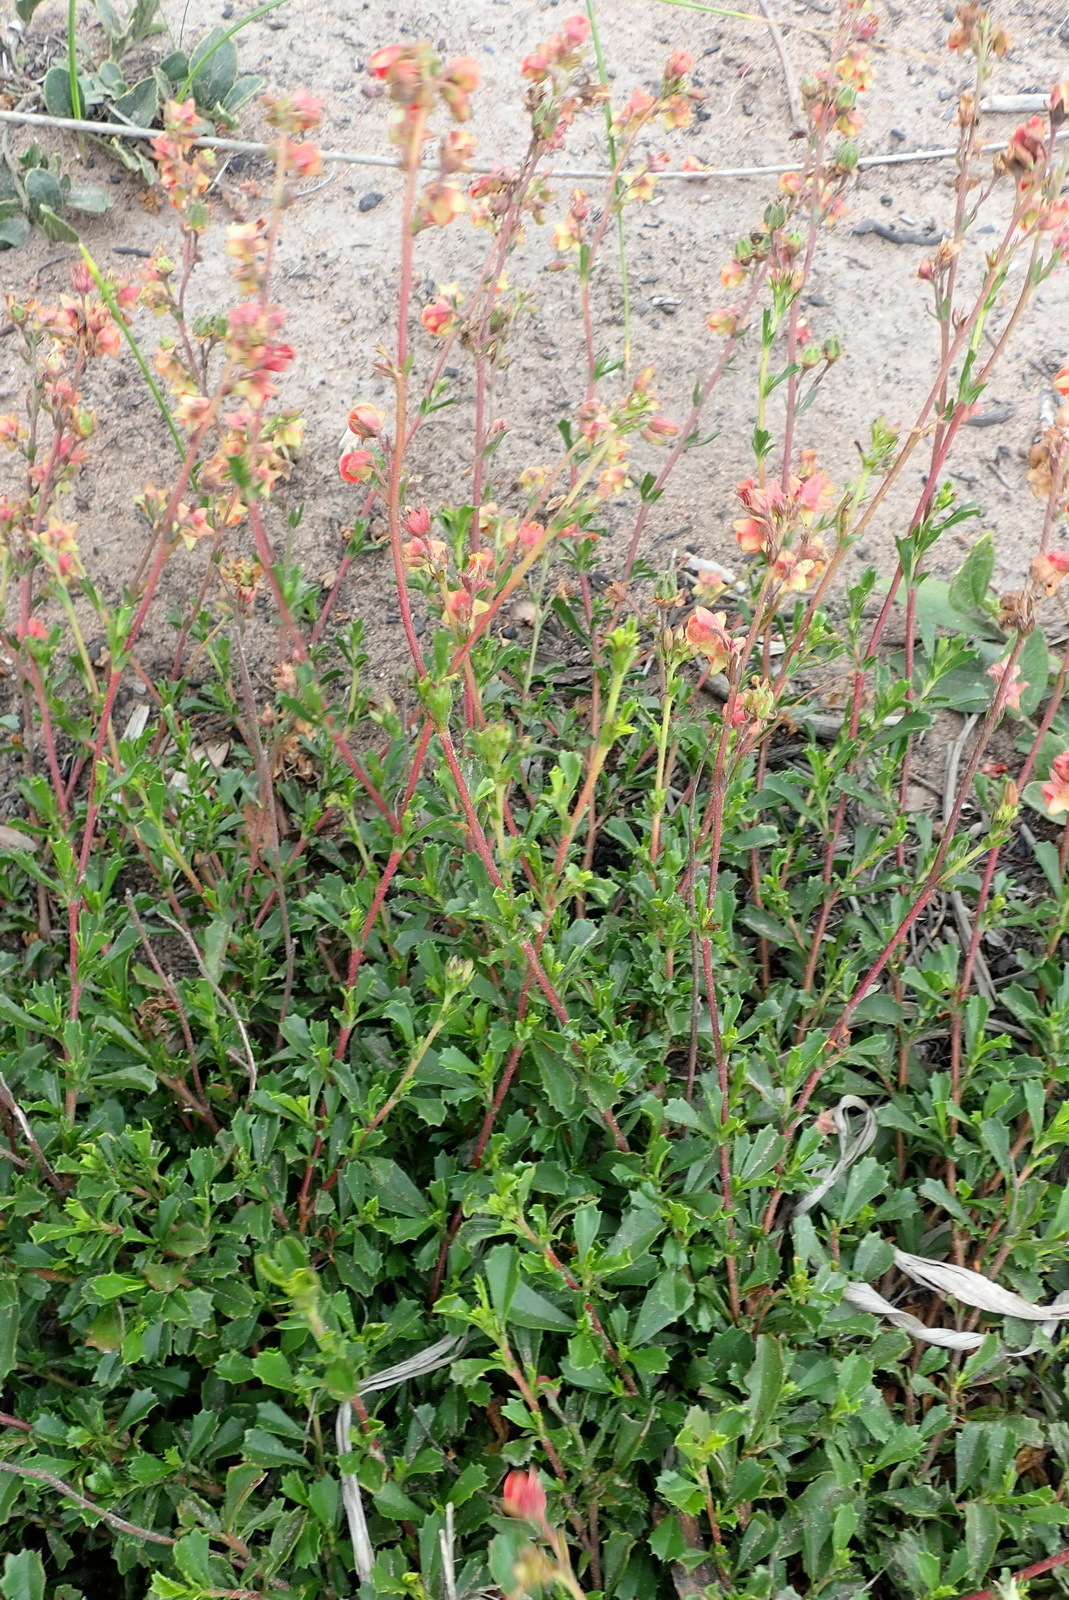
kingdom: Plantae
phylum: Tracheophyta
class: Magnoliopsida
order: Malvales
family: Malvaceae
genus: Hermannia
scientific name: Hermannia flammea
